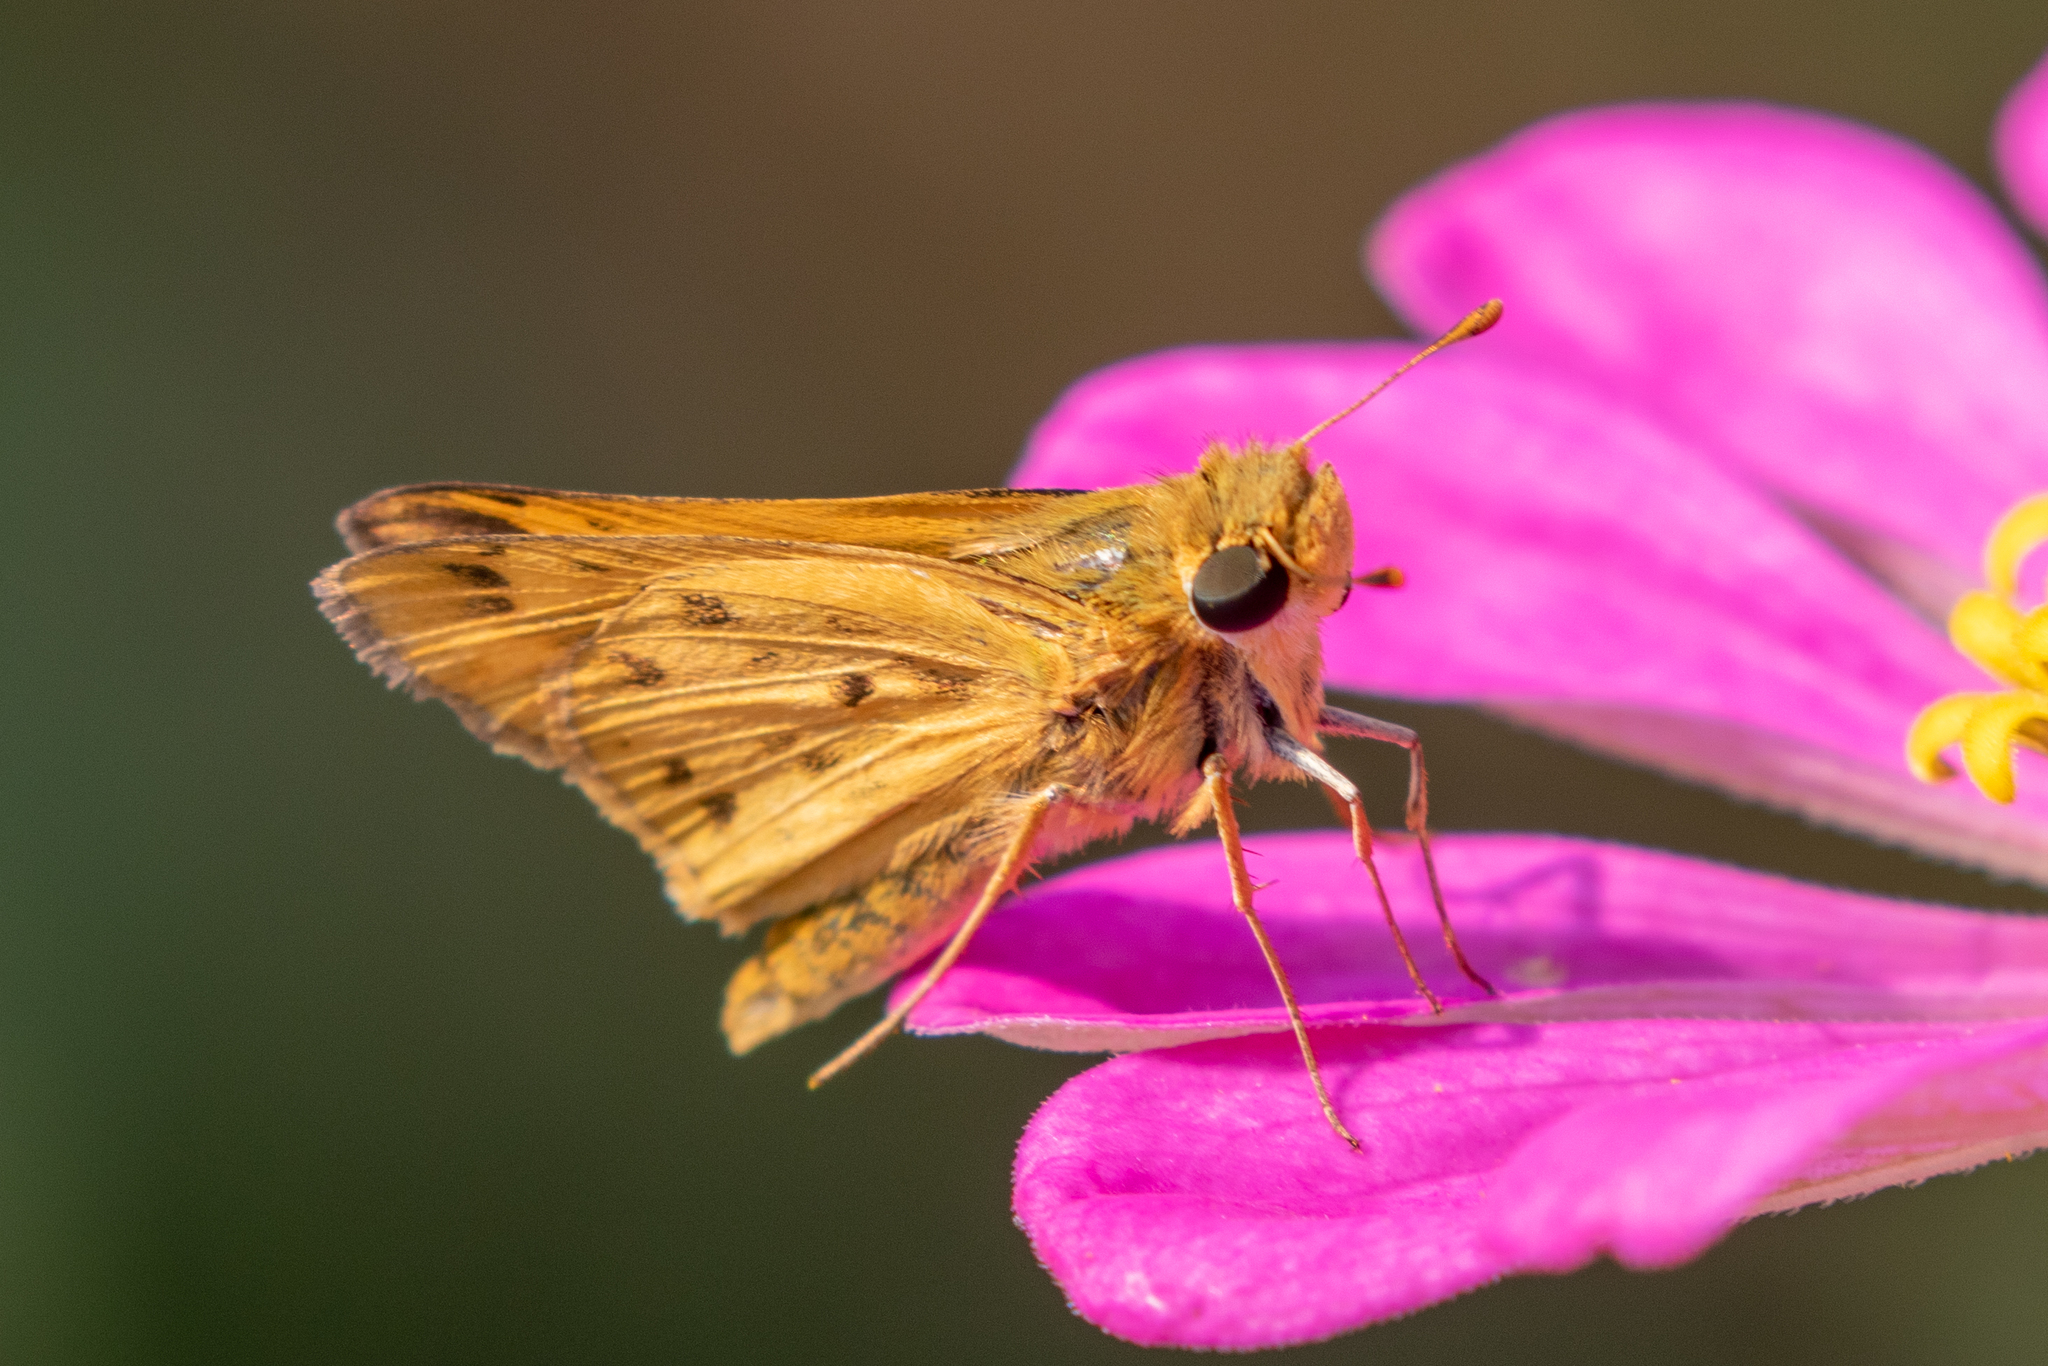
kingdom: Animalia
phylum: Arthropoda
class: Insecta
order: Lepidoptera
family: Hesperiidae
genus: Hylephila
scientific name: Hylephila phyleus
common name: Fiery skipper
